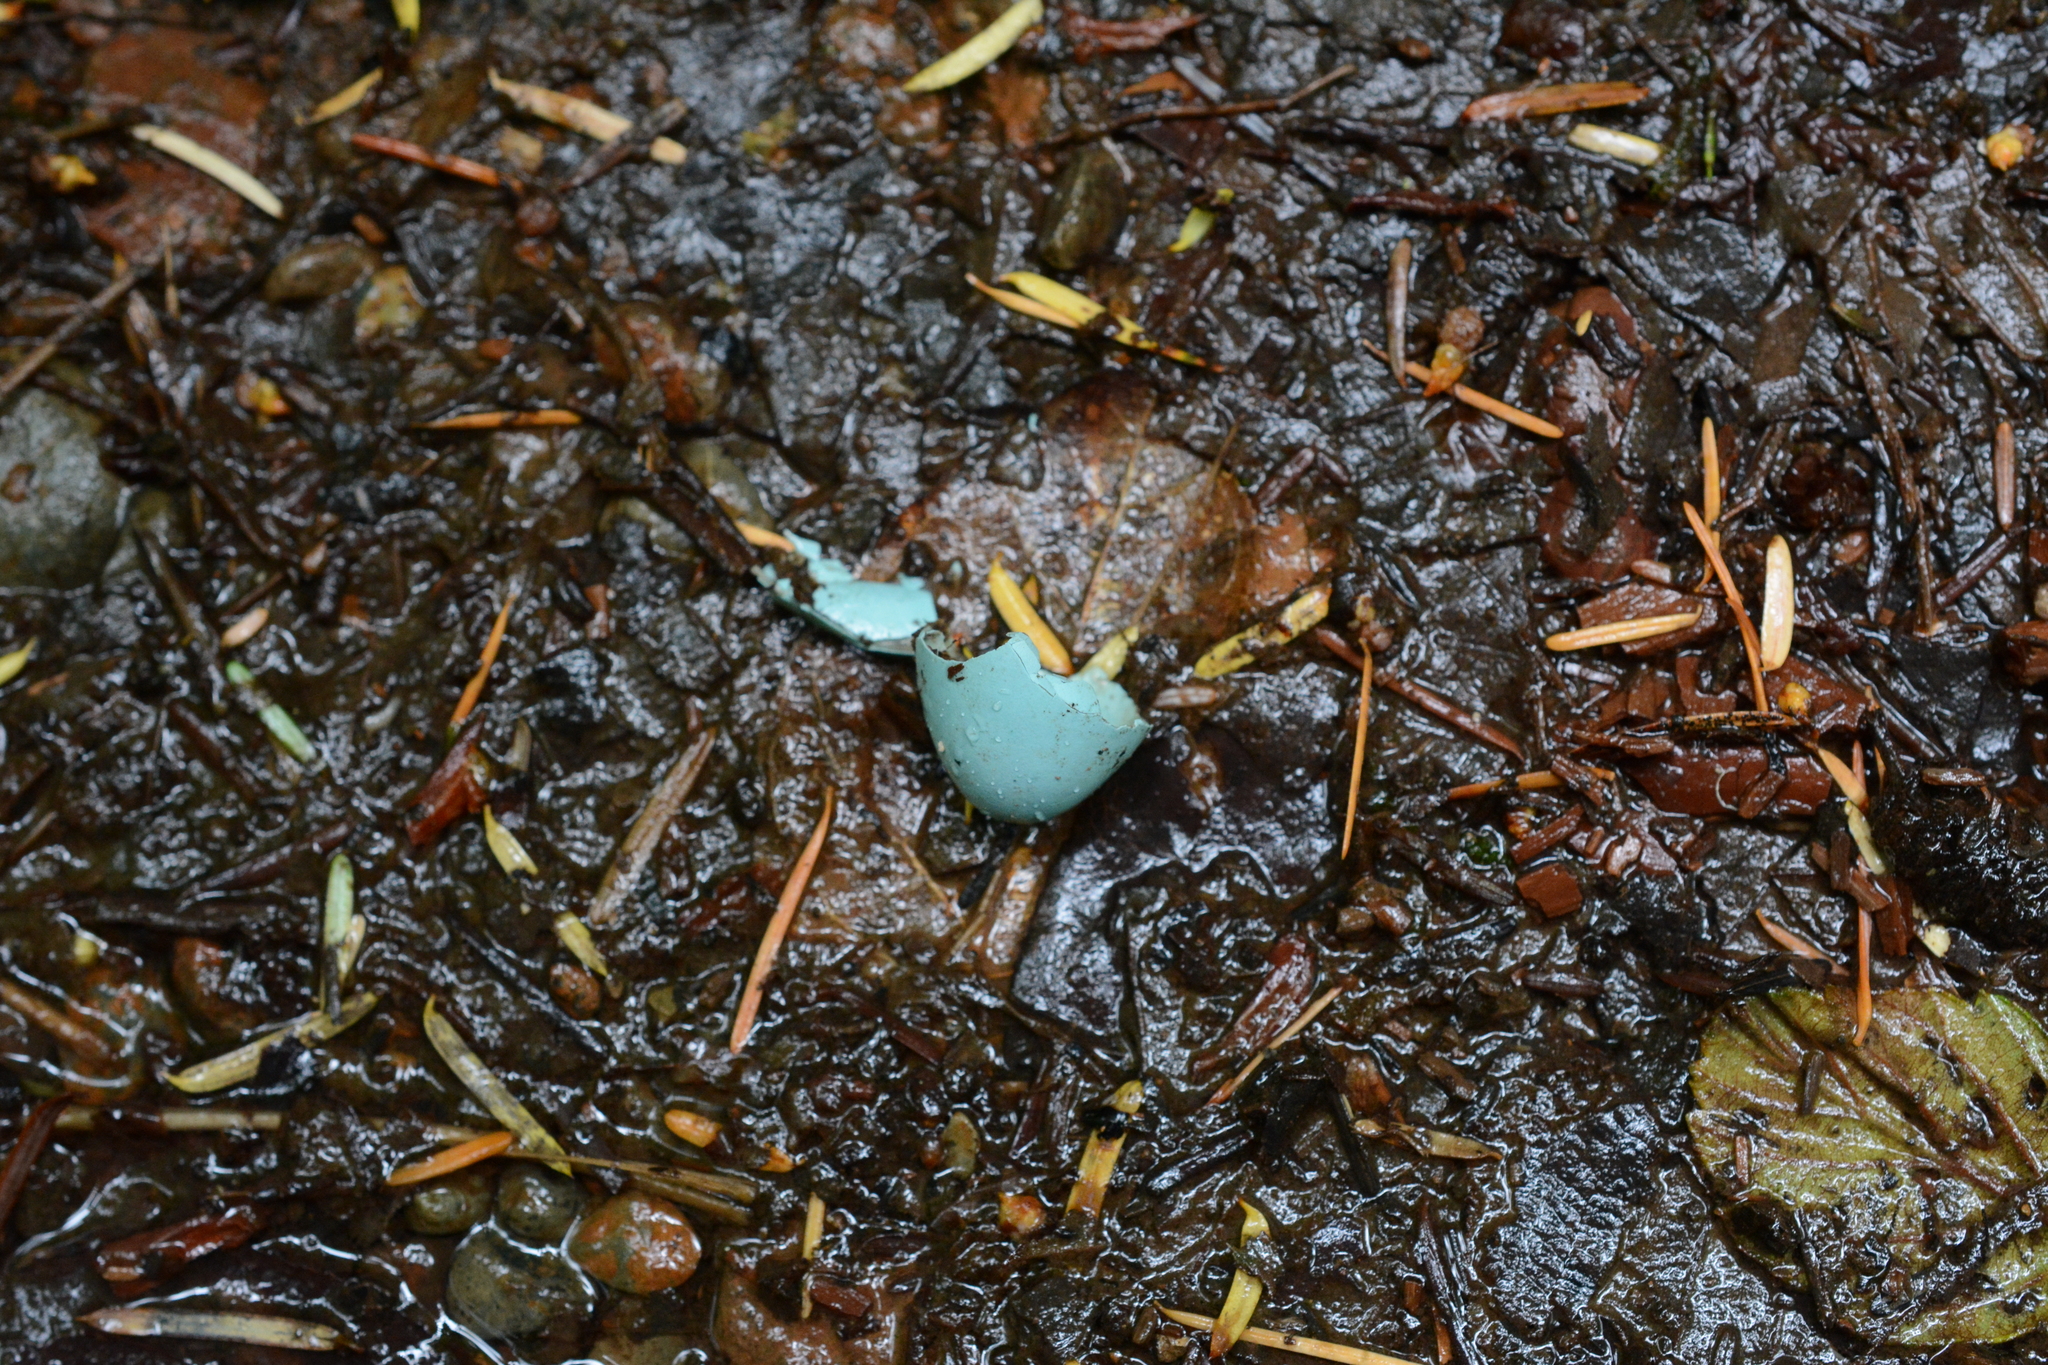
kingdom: Animalia
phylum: Chordata
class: Aves
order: Passeriformes
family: Turdidae
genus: Turdus
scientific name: Turdus migratorius
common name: American robin
